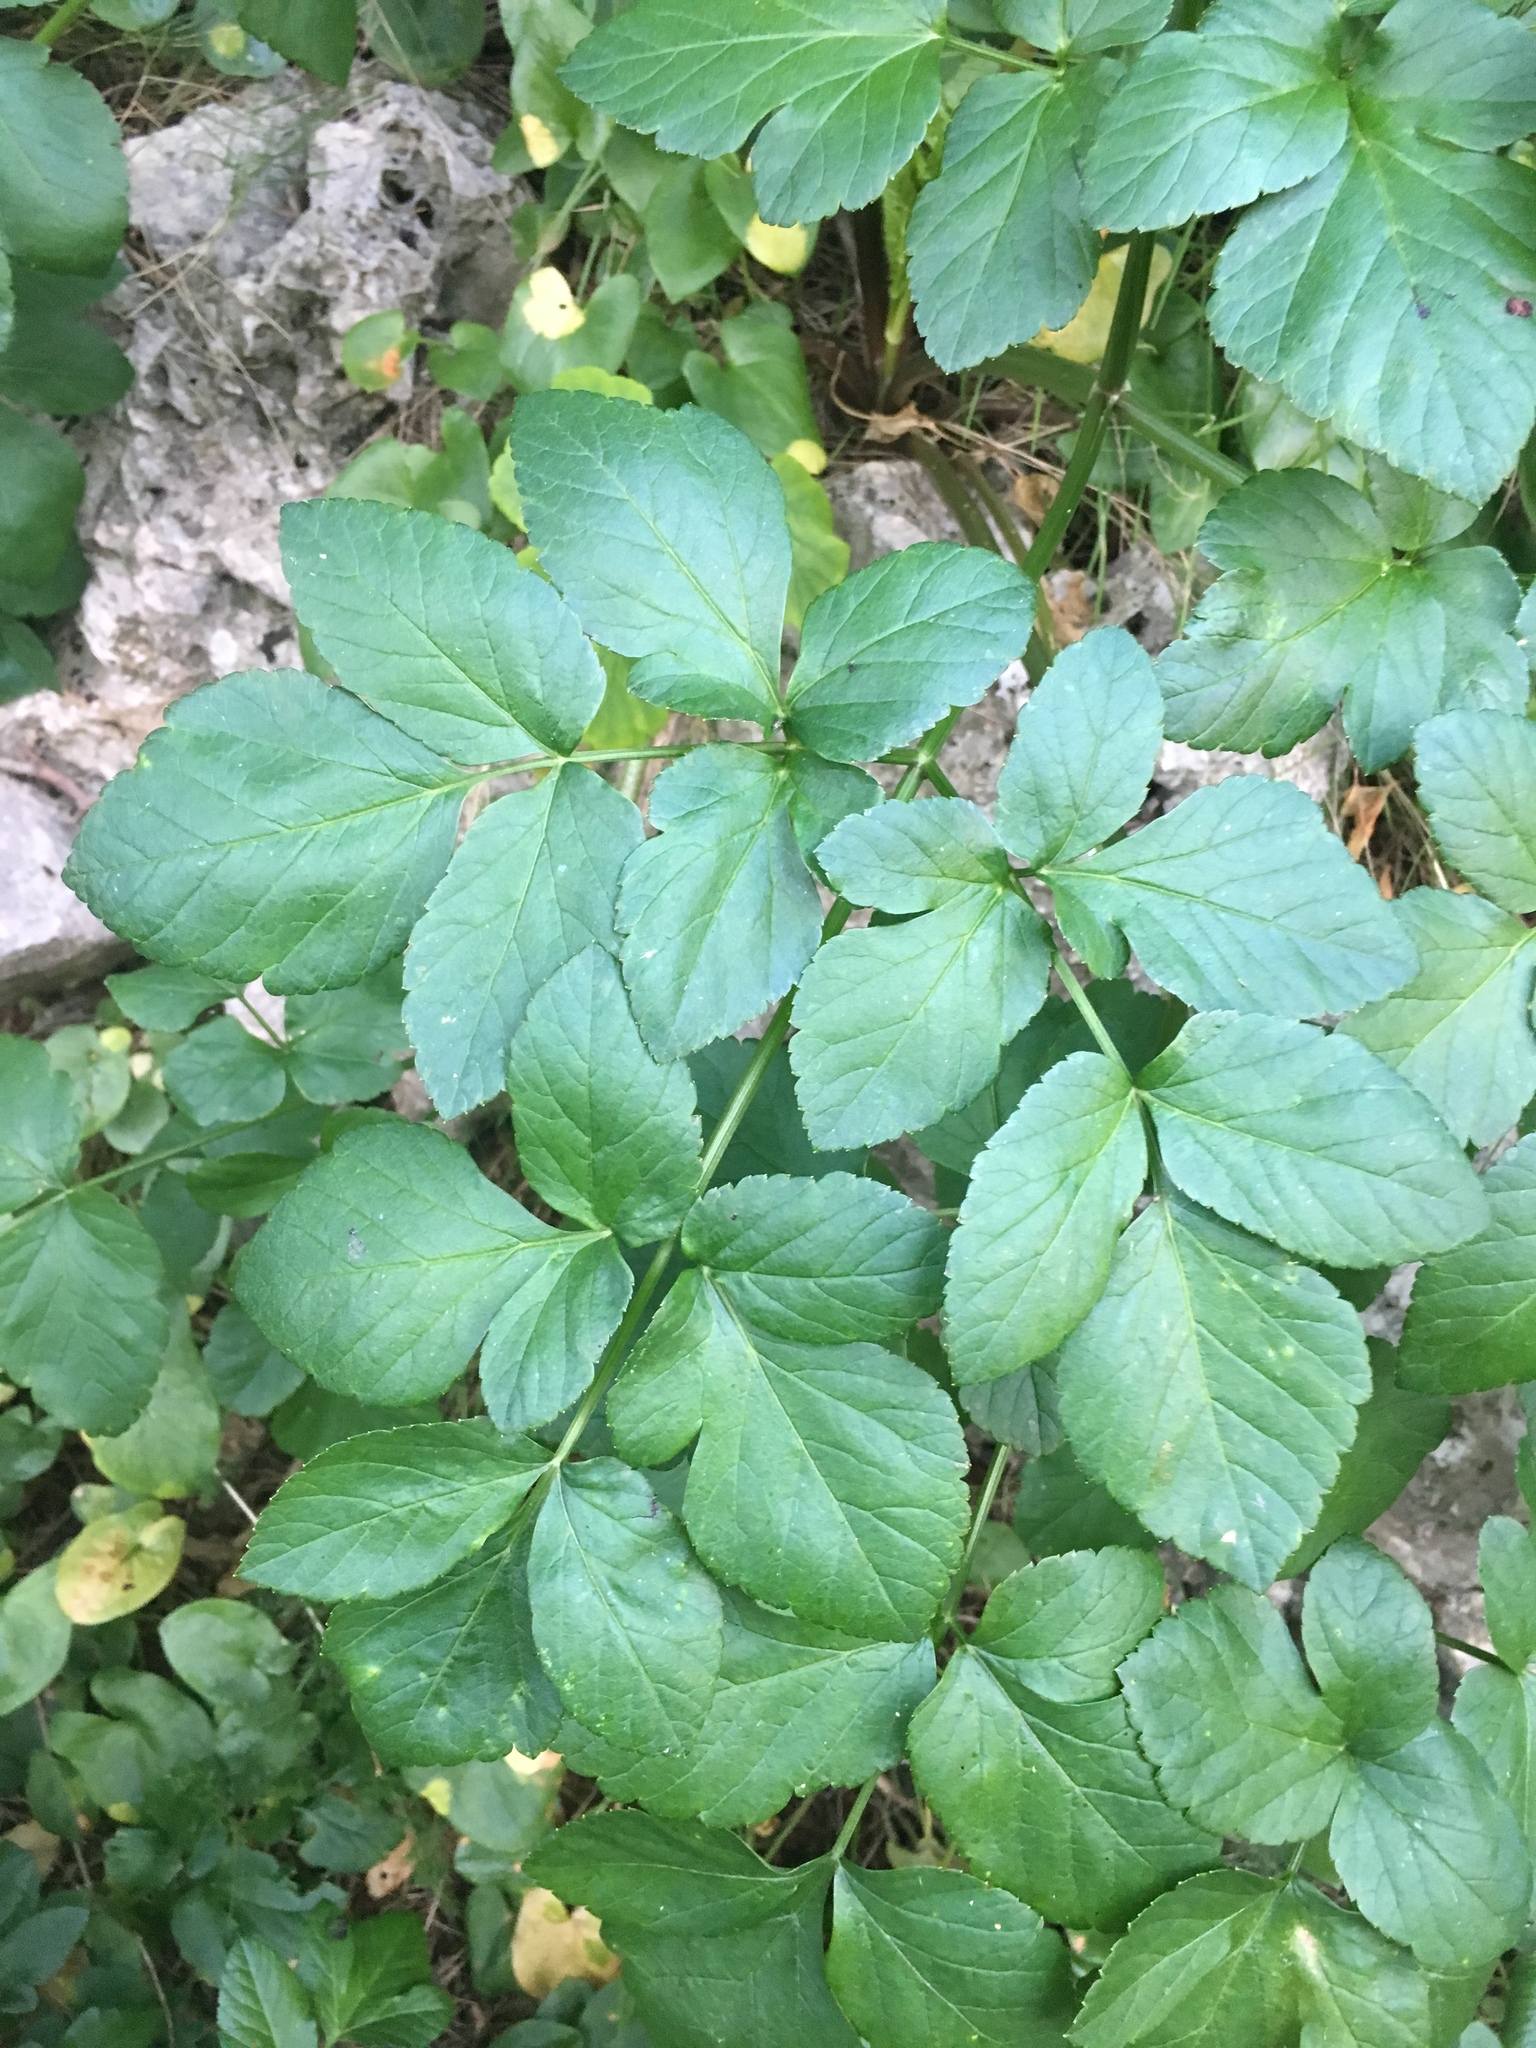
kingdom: Plantae
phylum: Tracheophyta
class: Magnoliopsida
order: Apiales
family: Apiaceae
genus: Smyrnium
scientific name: Smyrnium olusatrum
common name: Alexanders
